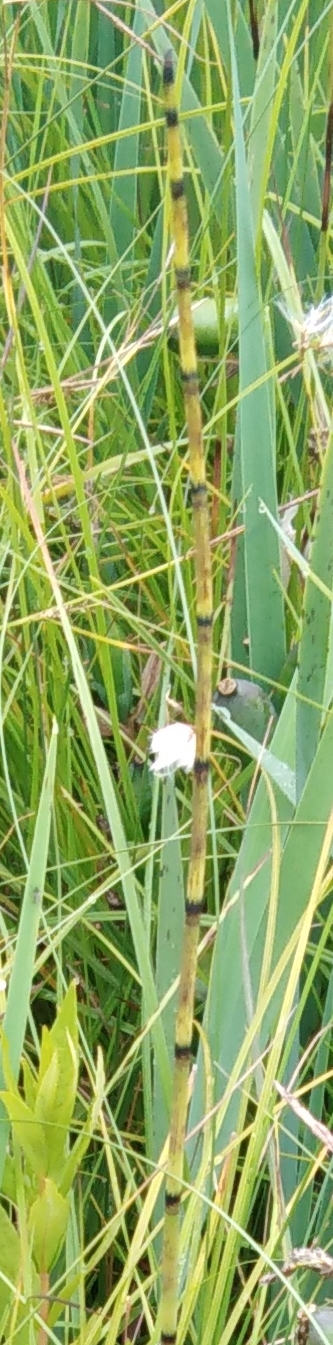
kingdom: Plantae
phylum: Tracheophyta
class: Polypodiopsida
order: Equisetales
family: Equisetaceae
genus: Equisetum
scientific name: Equisetum fluviatile
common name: Water horsetail
